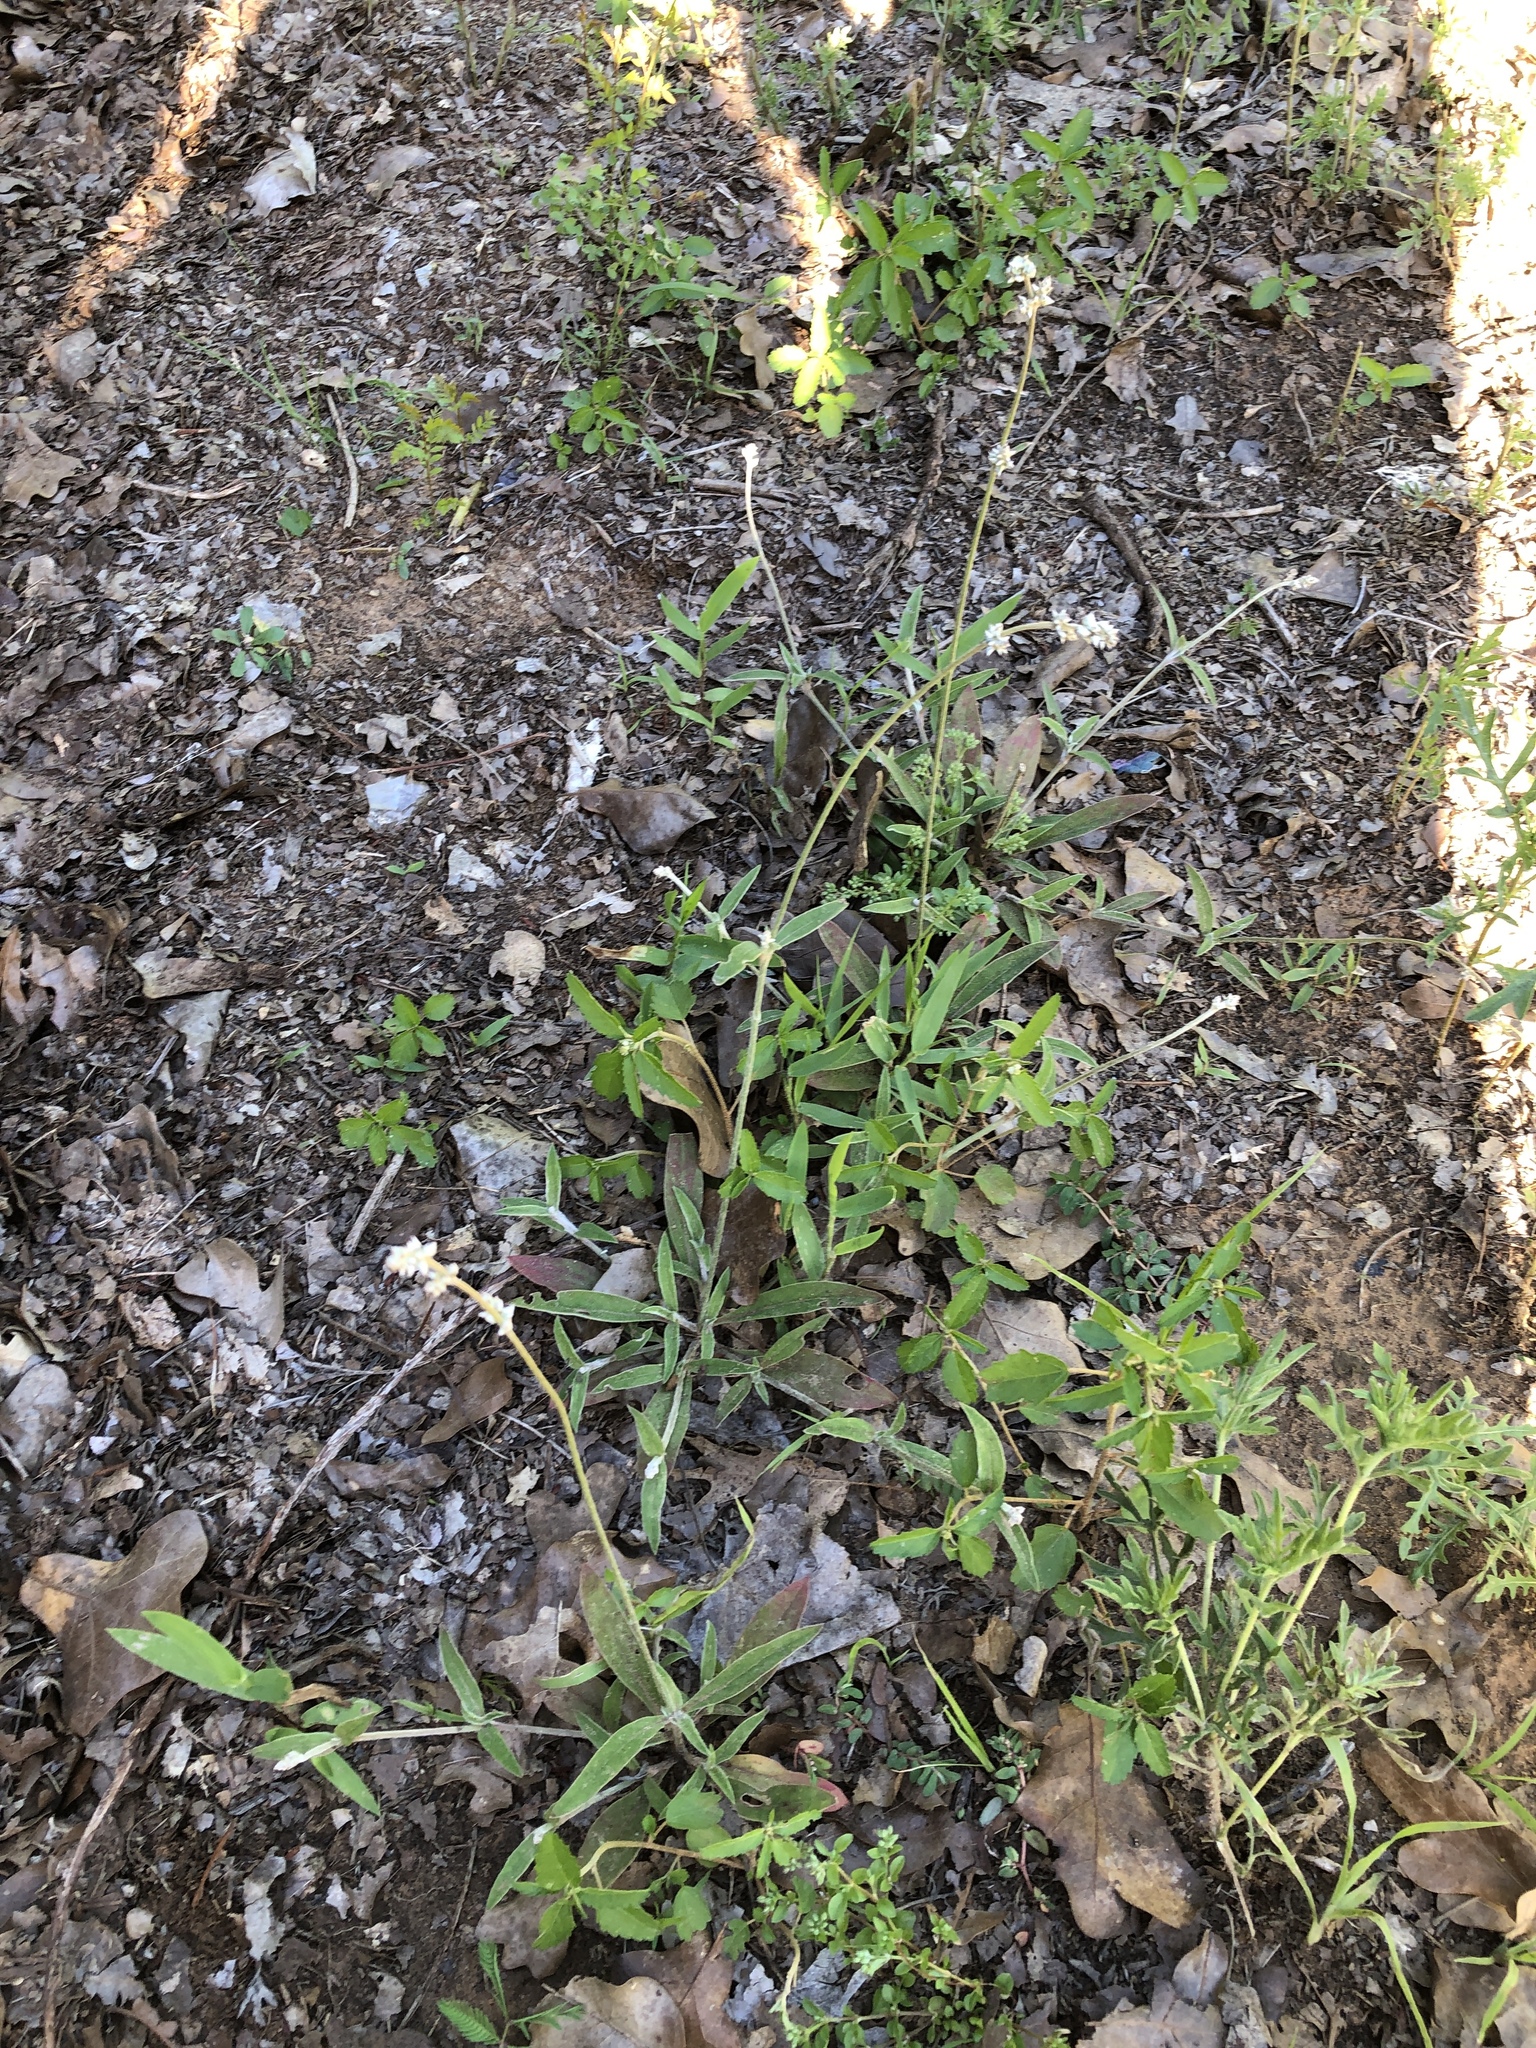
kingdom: Plantae
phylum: Tracheophyta
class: Magnoliopsida
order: Caryophyllales
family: Amaranthaceae
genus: Froelichia
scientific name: Froelichia gracilis
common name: Slender cottonweed
